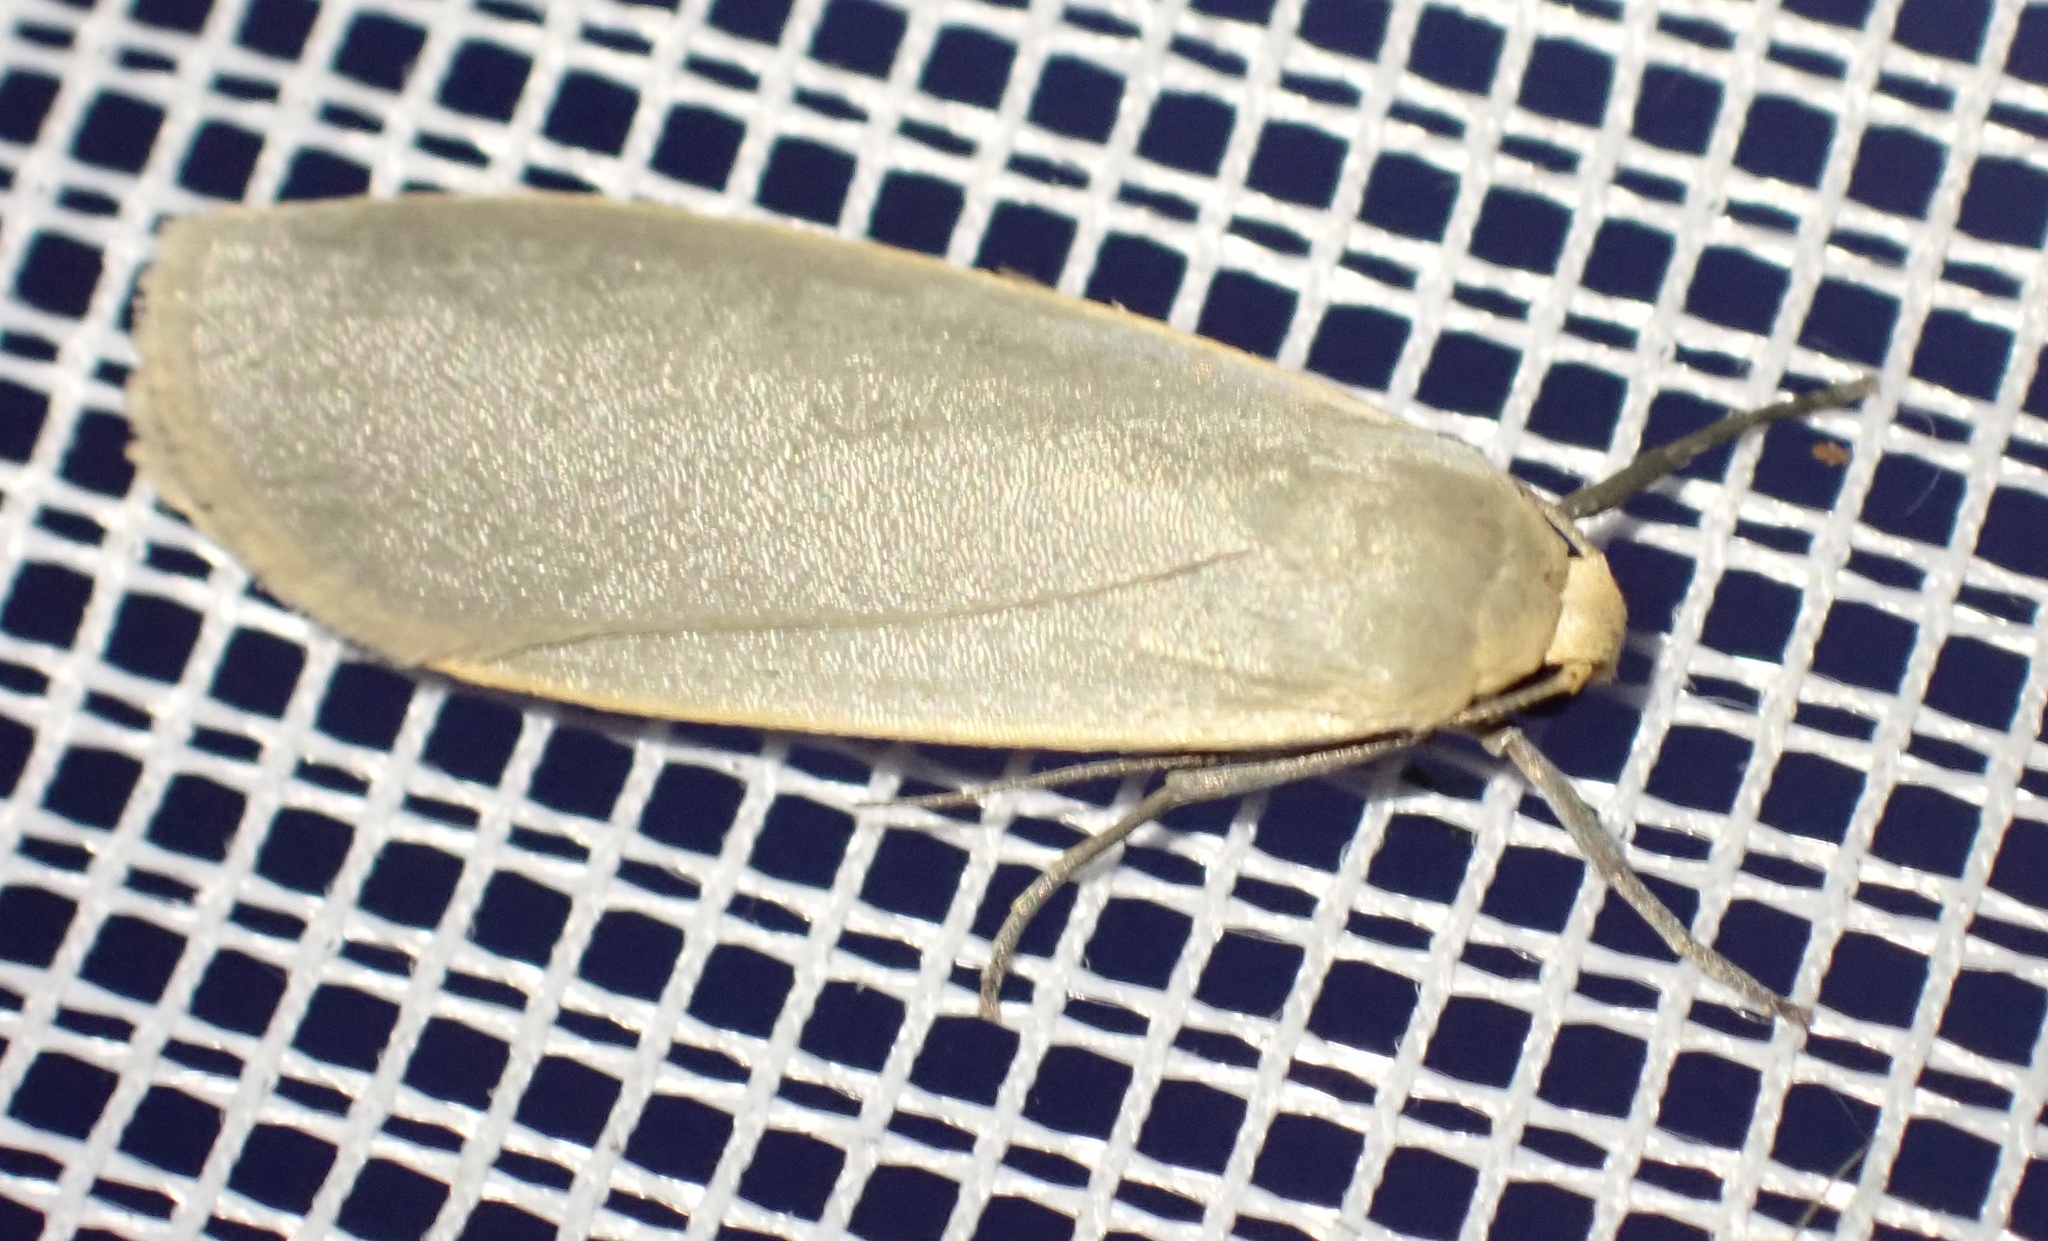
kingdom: Animalia
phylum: Arthropoda
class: Insecta
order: Lepidoptera
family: Erebidae
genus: Collita
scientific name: Collita griseola
